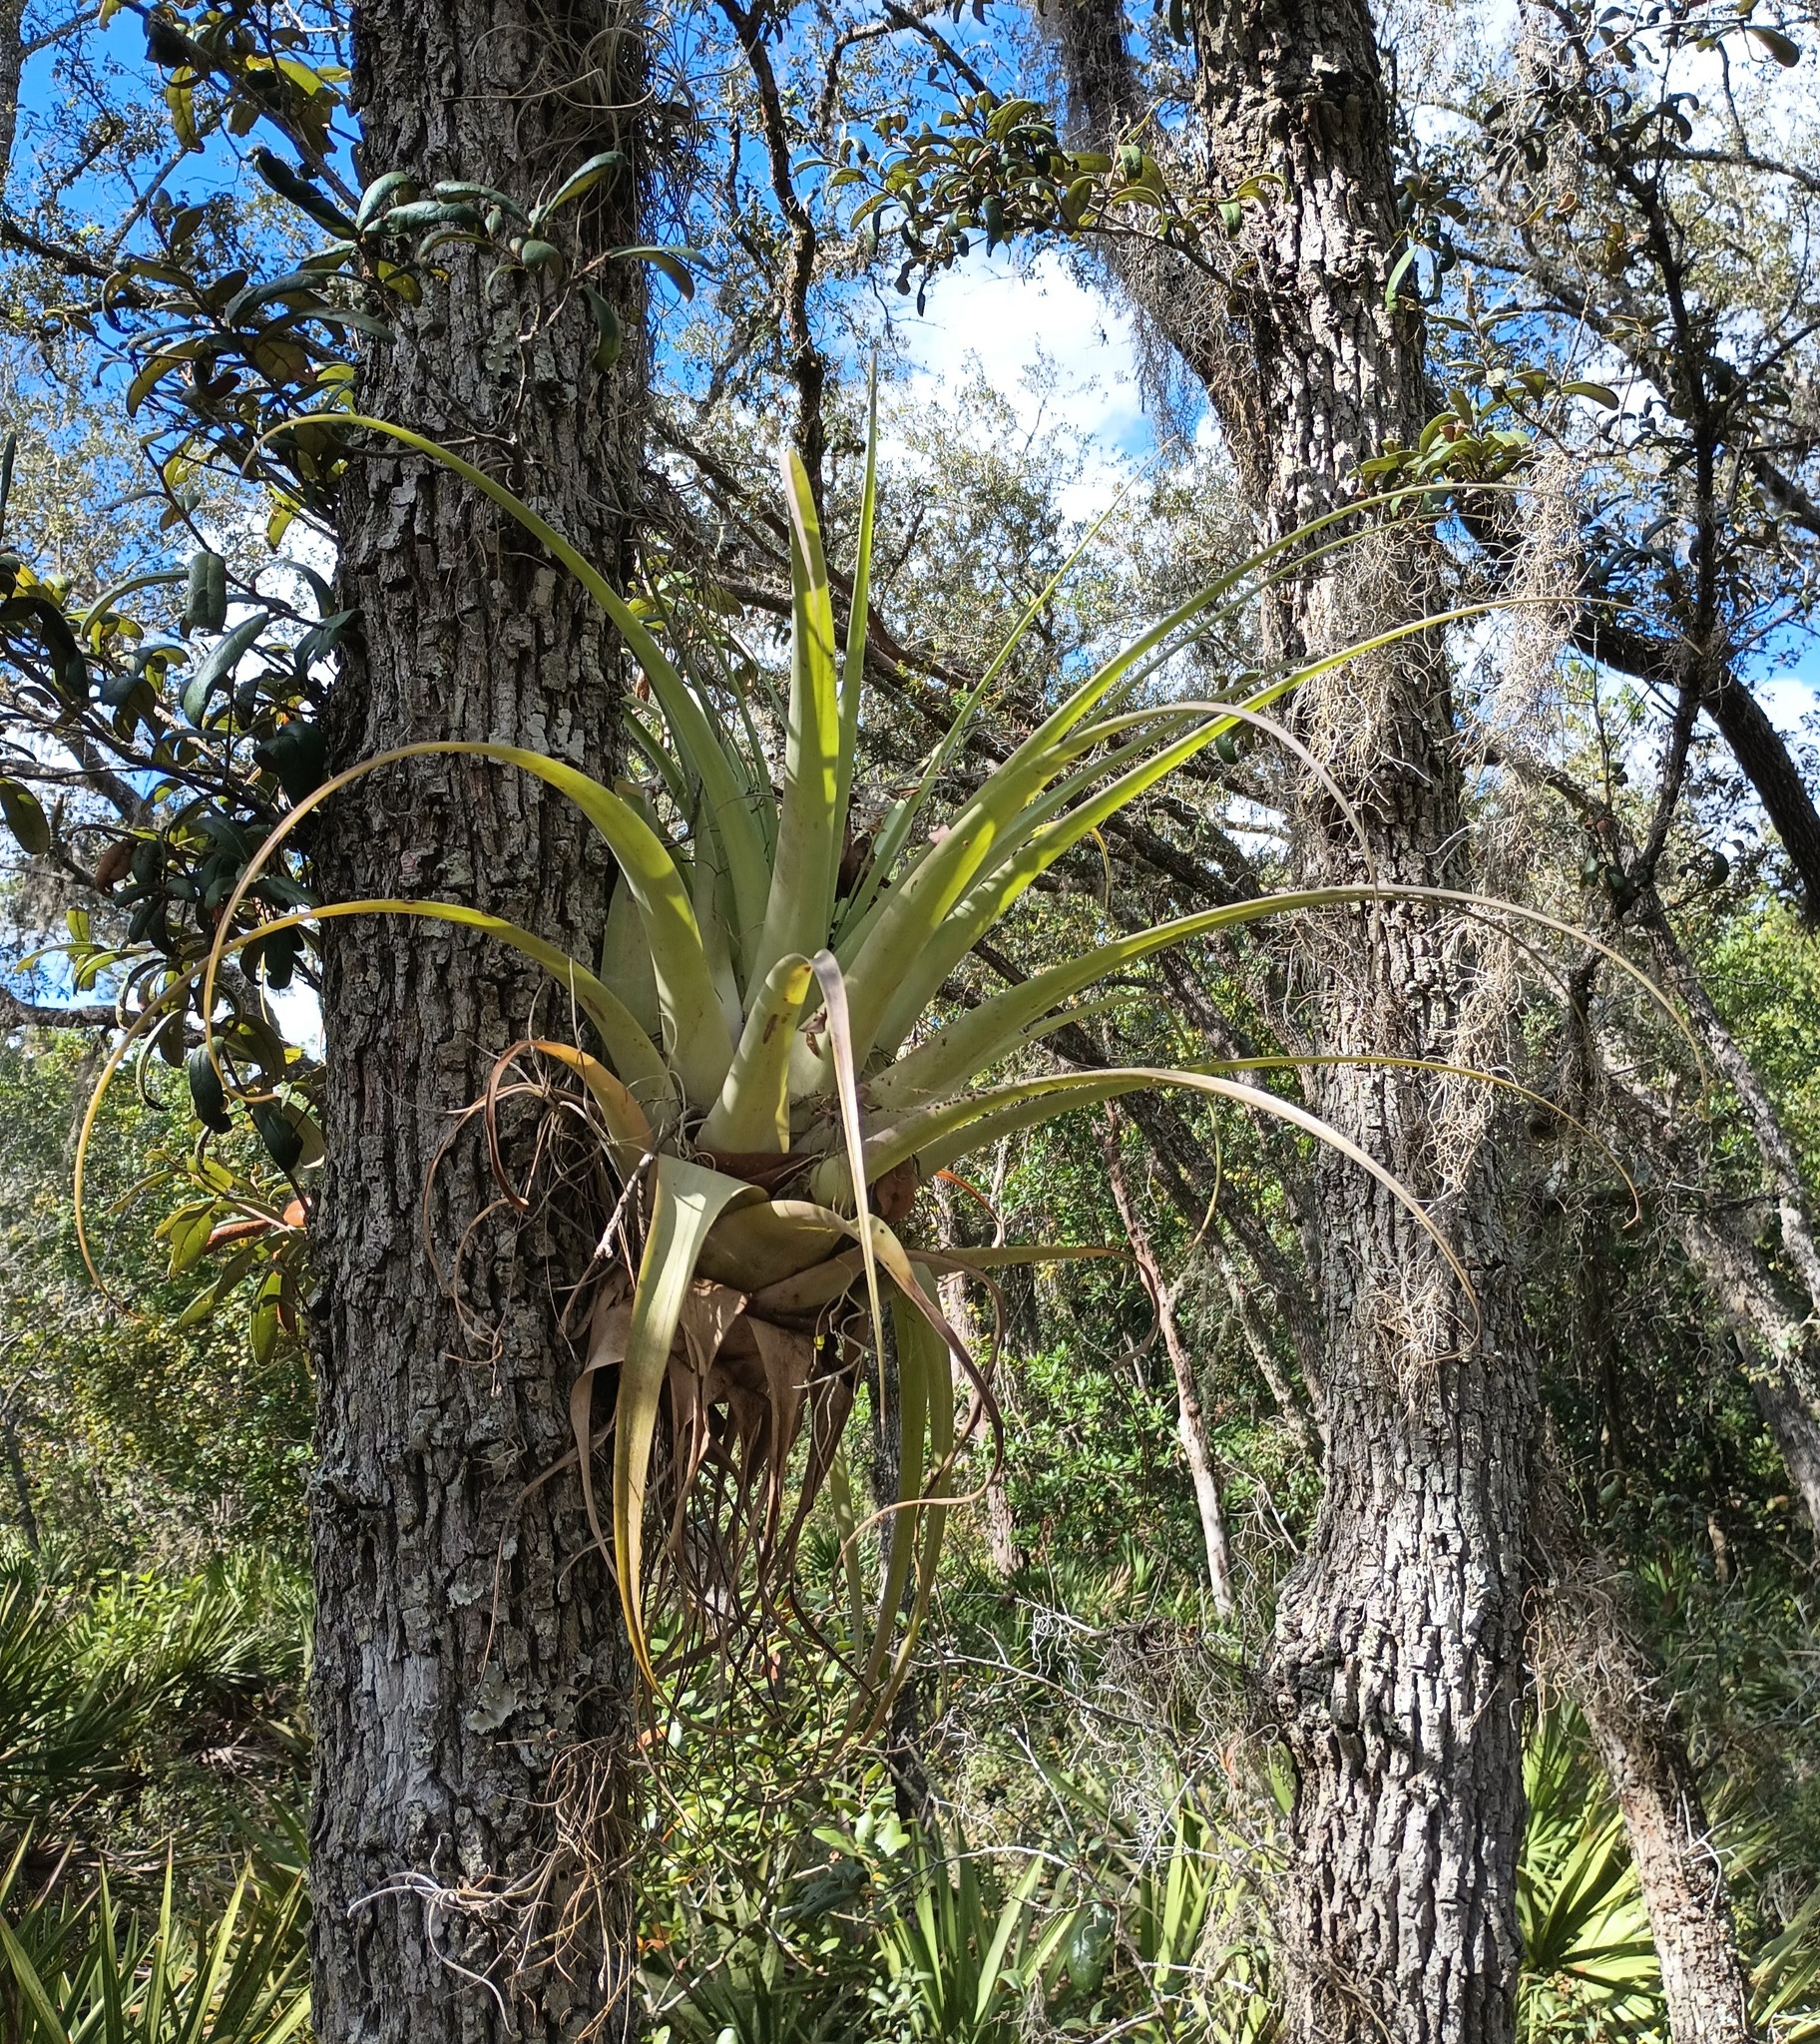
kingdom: Plantae
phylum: Tracheophyta
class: Liliopsida
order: Poales
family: Bromeliaceae
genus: Tillandsia
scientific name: Tillandsia utriculata
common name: Wild pine
